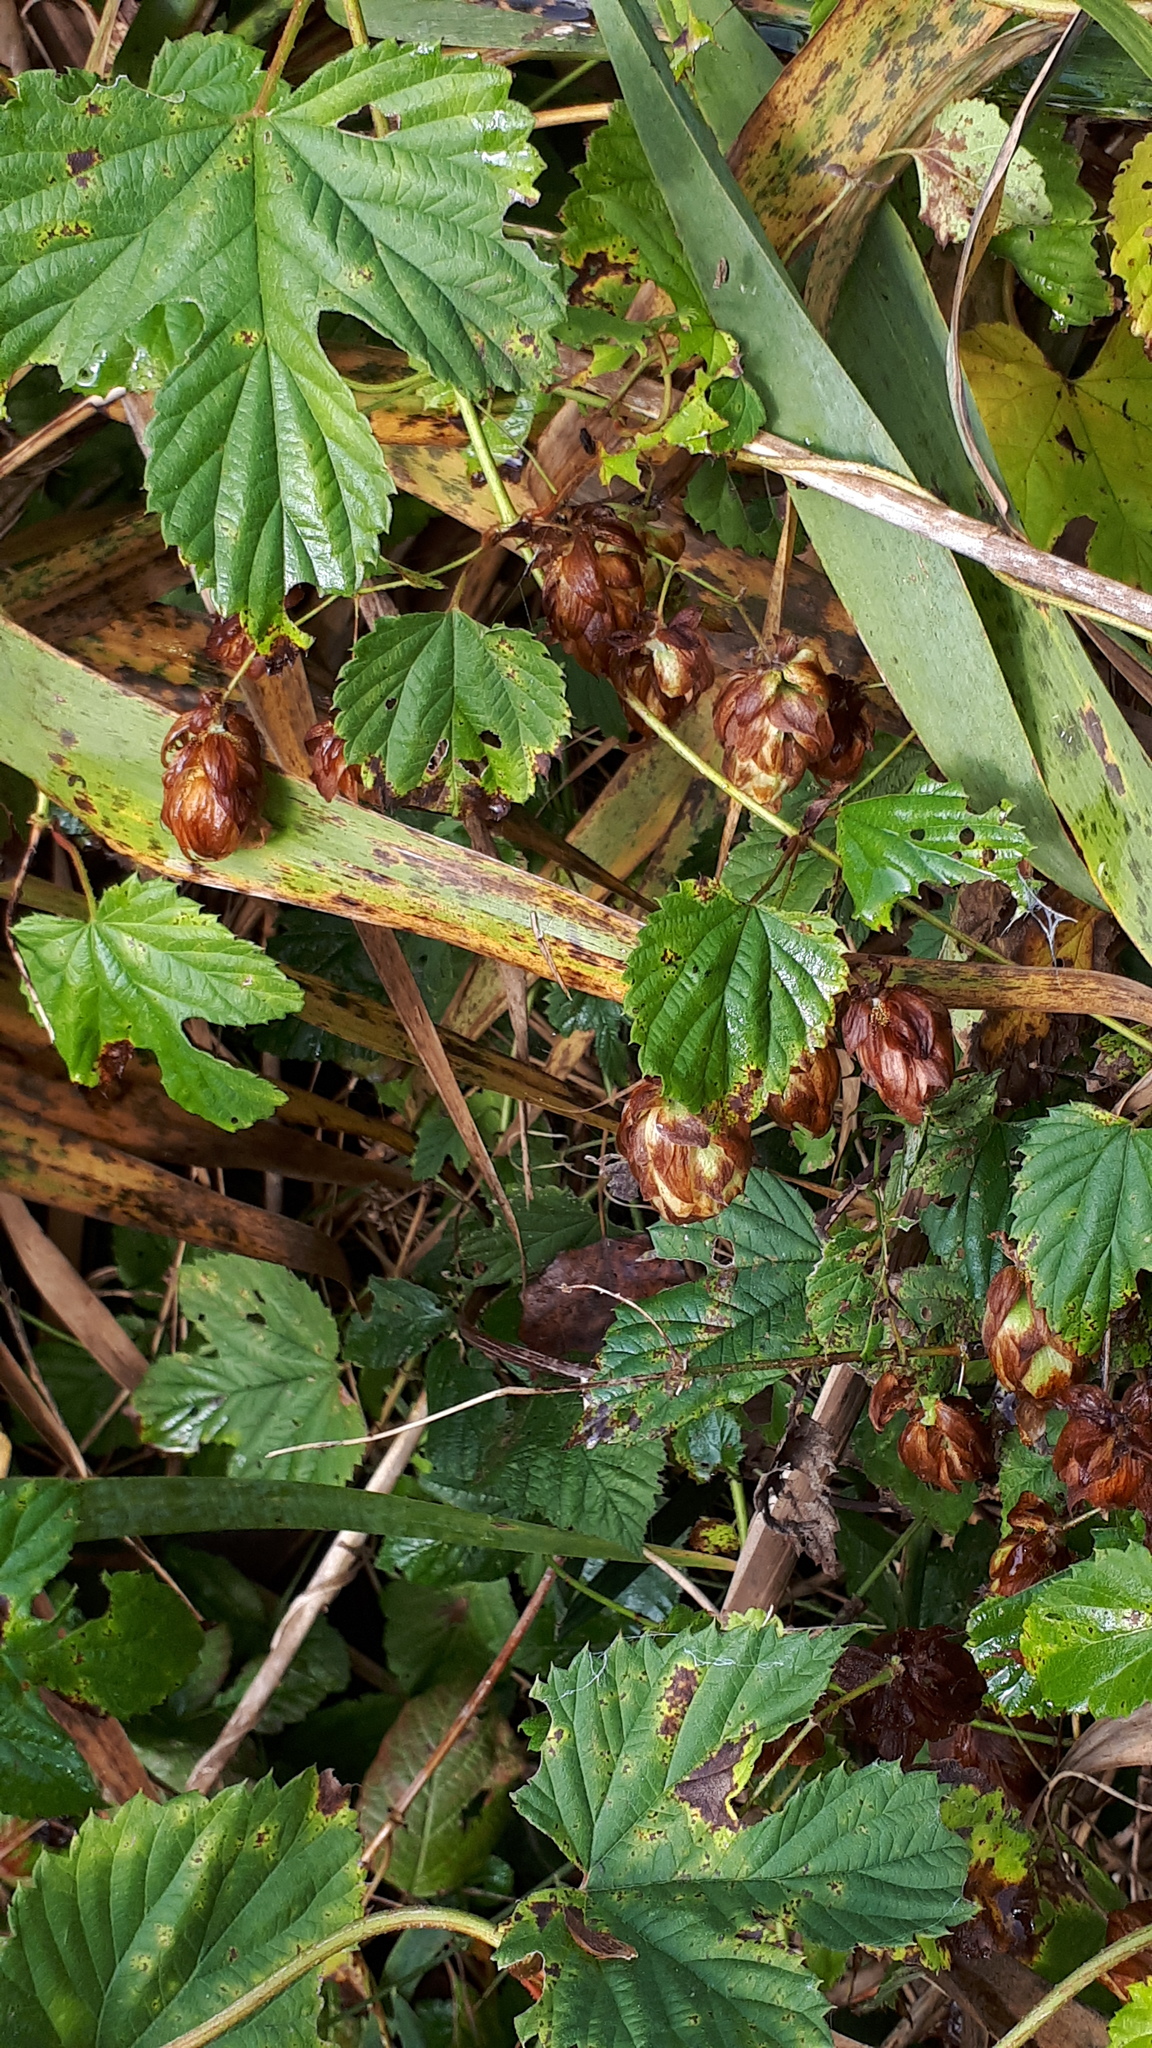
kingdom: Plantae
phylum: Tracheophyta
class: Magnoliopsida
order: Rosales
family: Cannabaceae
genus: Humulus
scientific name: Humulus lupulus
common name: Hop
